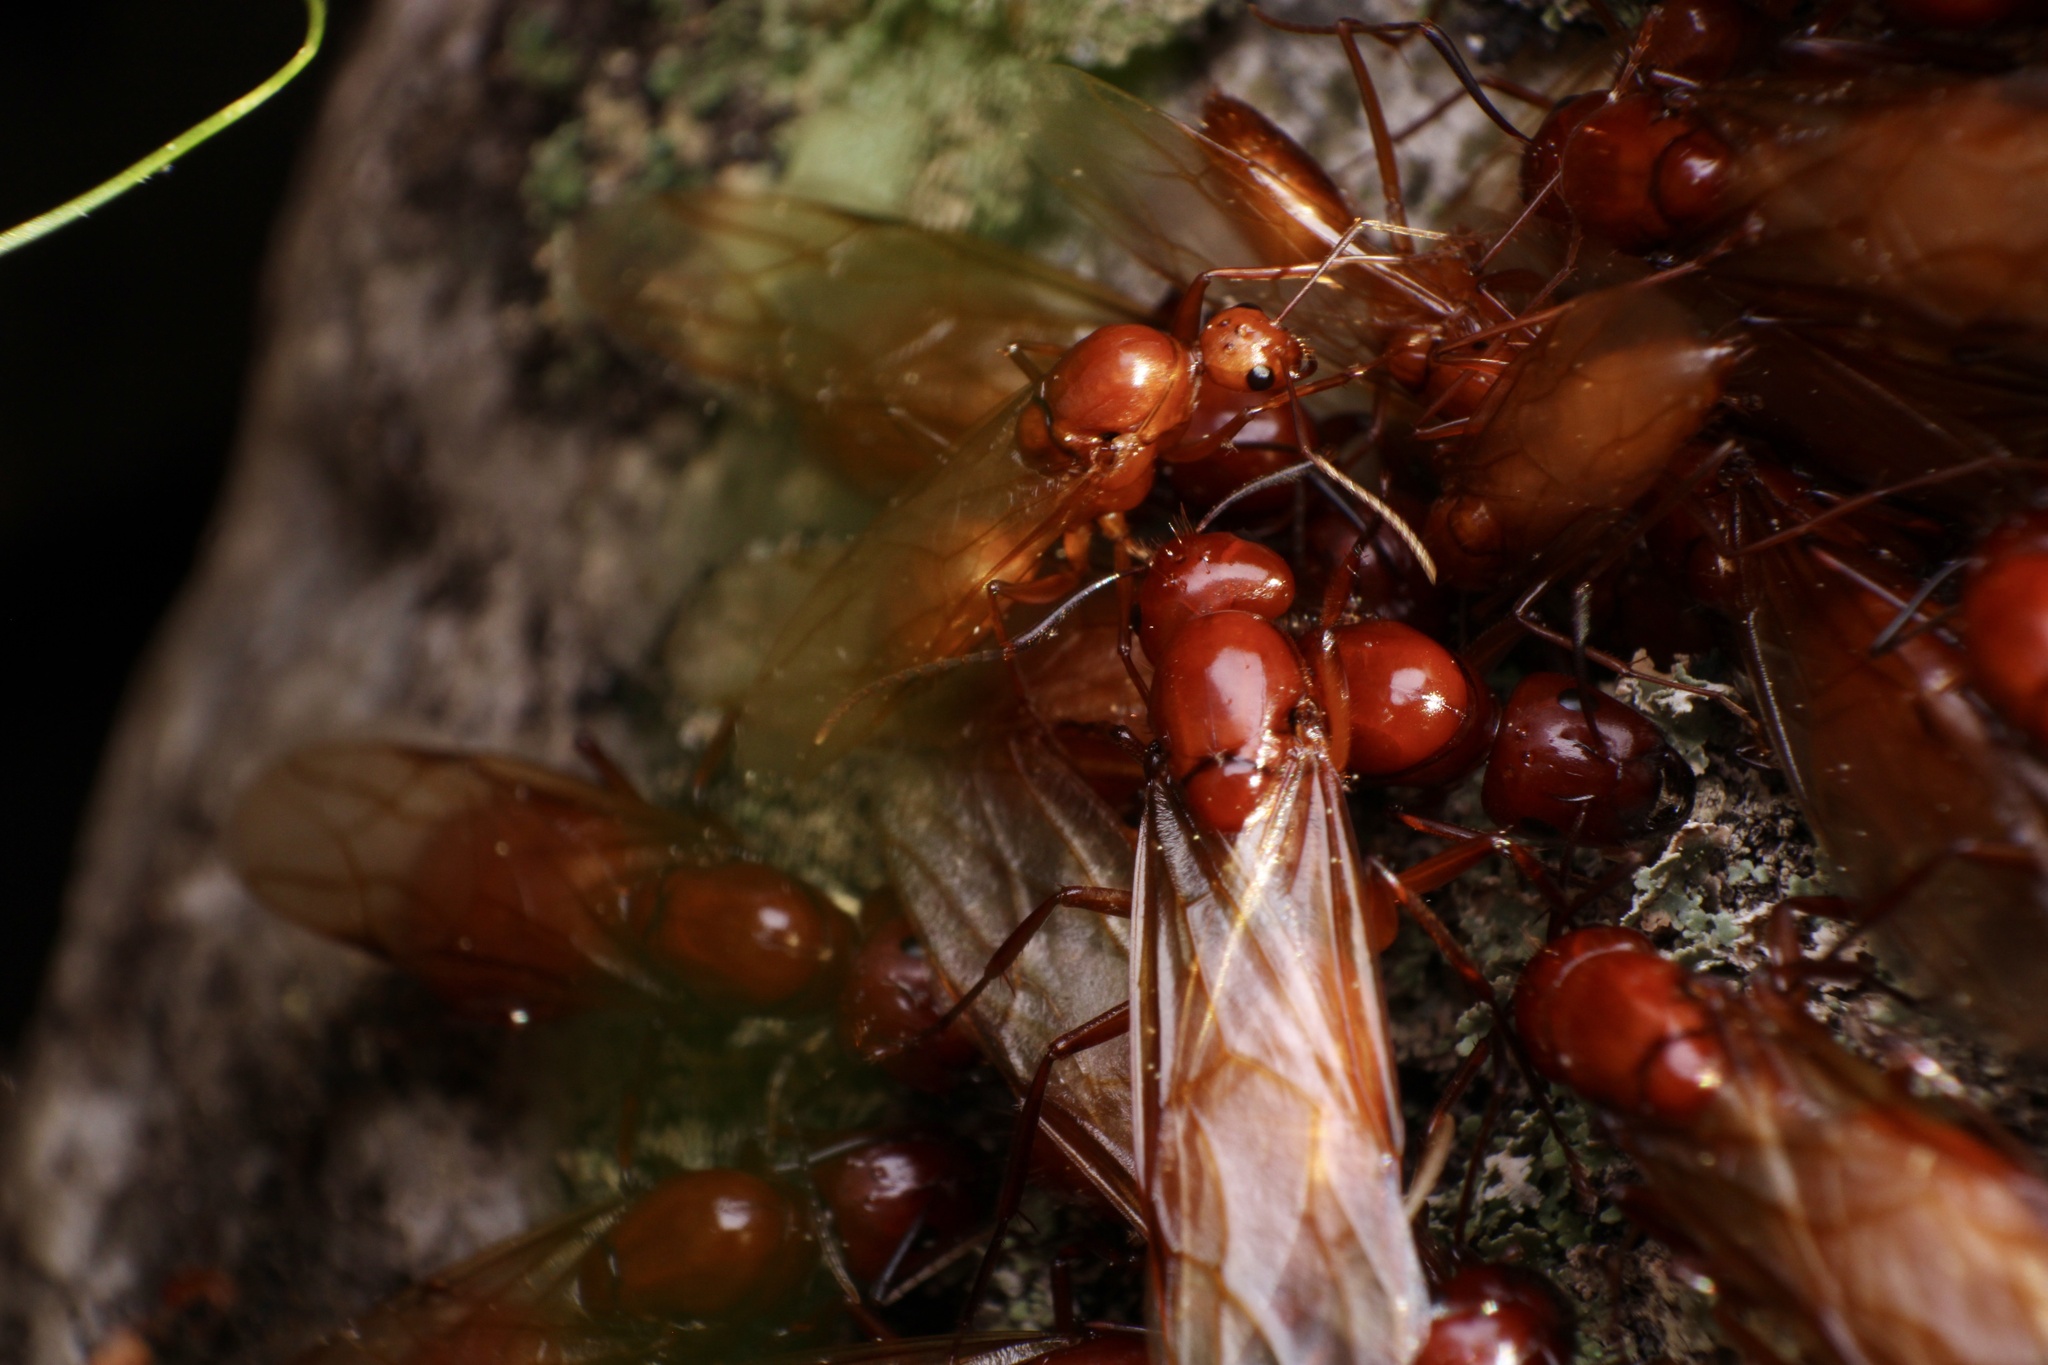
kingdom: Animalia
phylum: Arthropoda
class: Insecta
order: Hymenoptera
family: Formicidae
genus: Camponotus
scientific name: Camponotus castaneus
